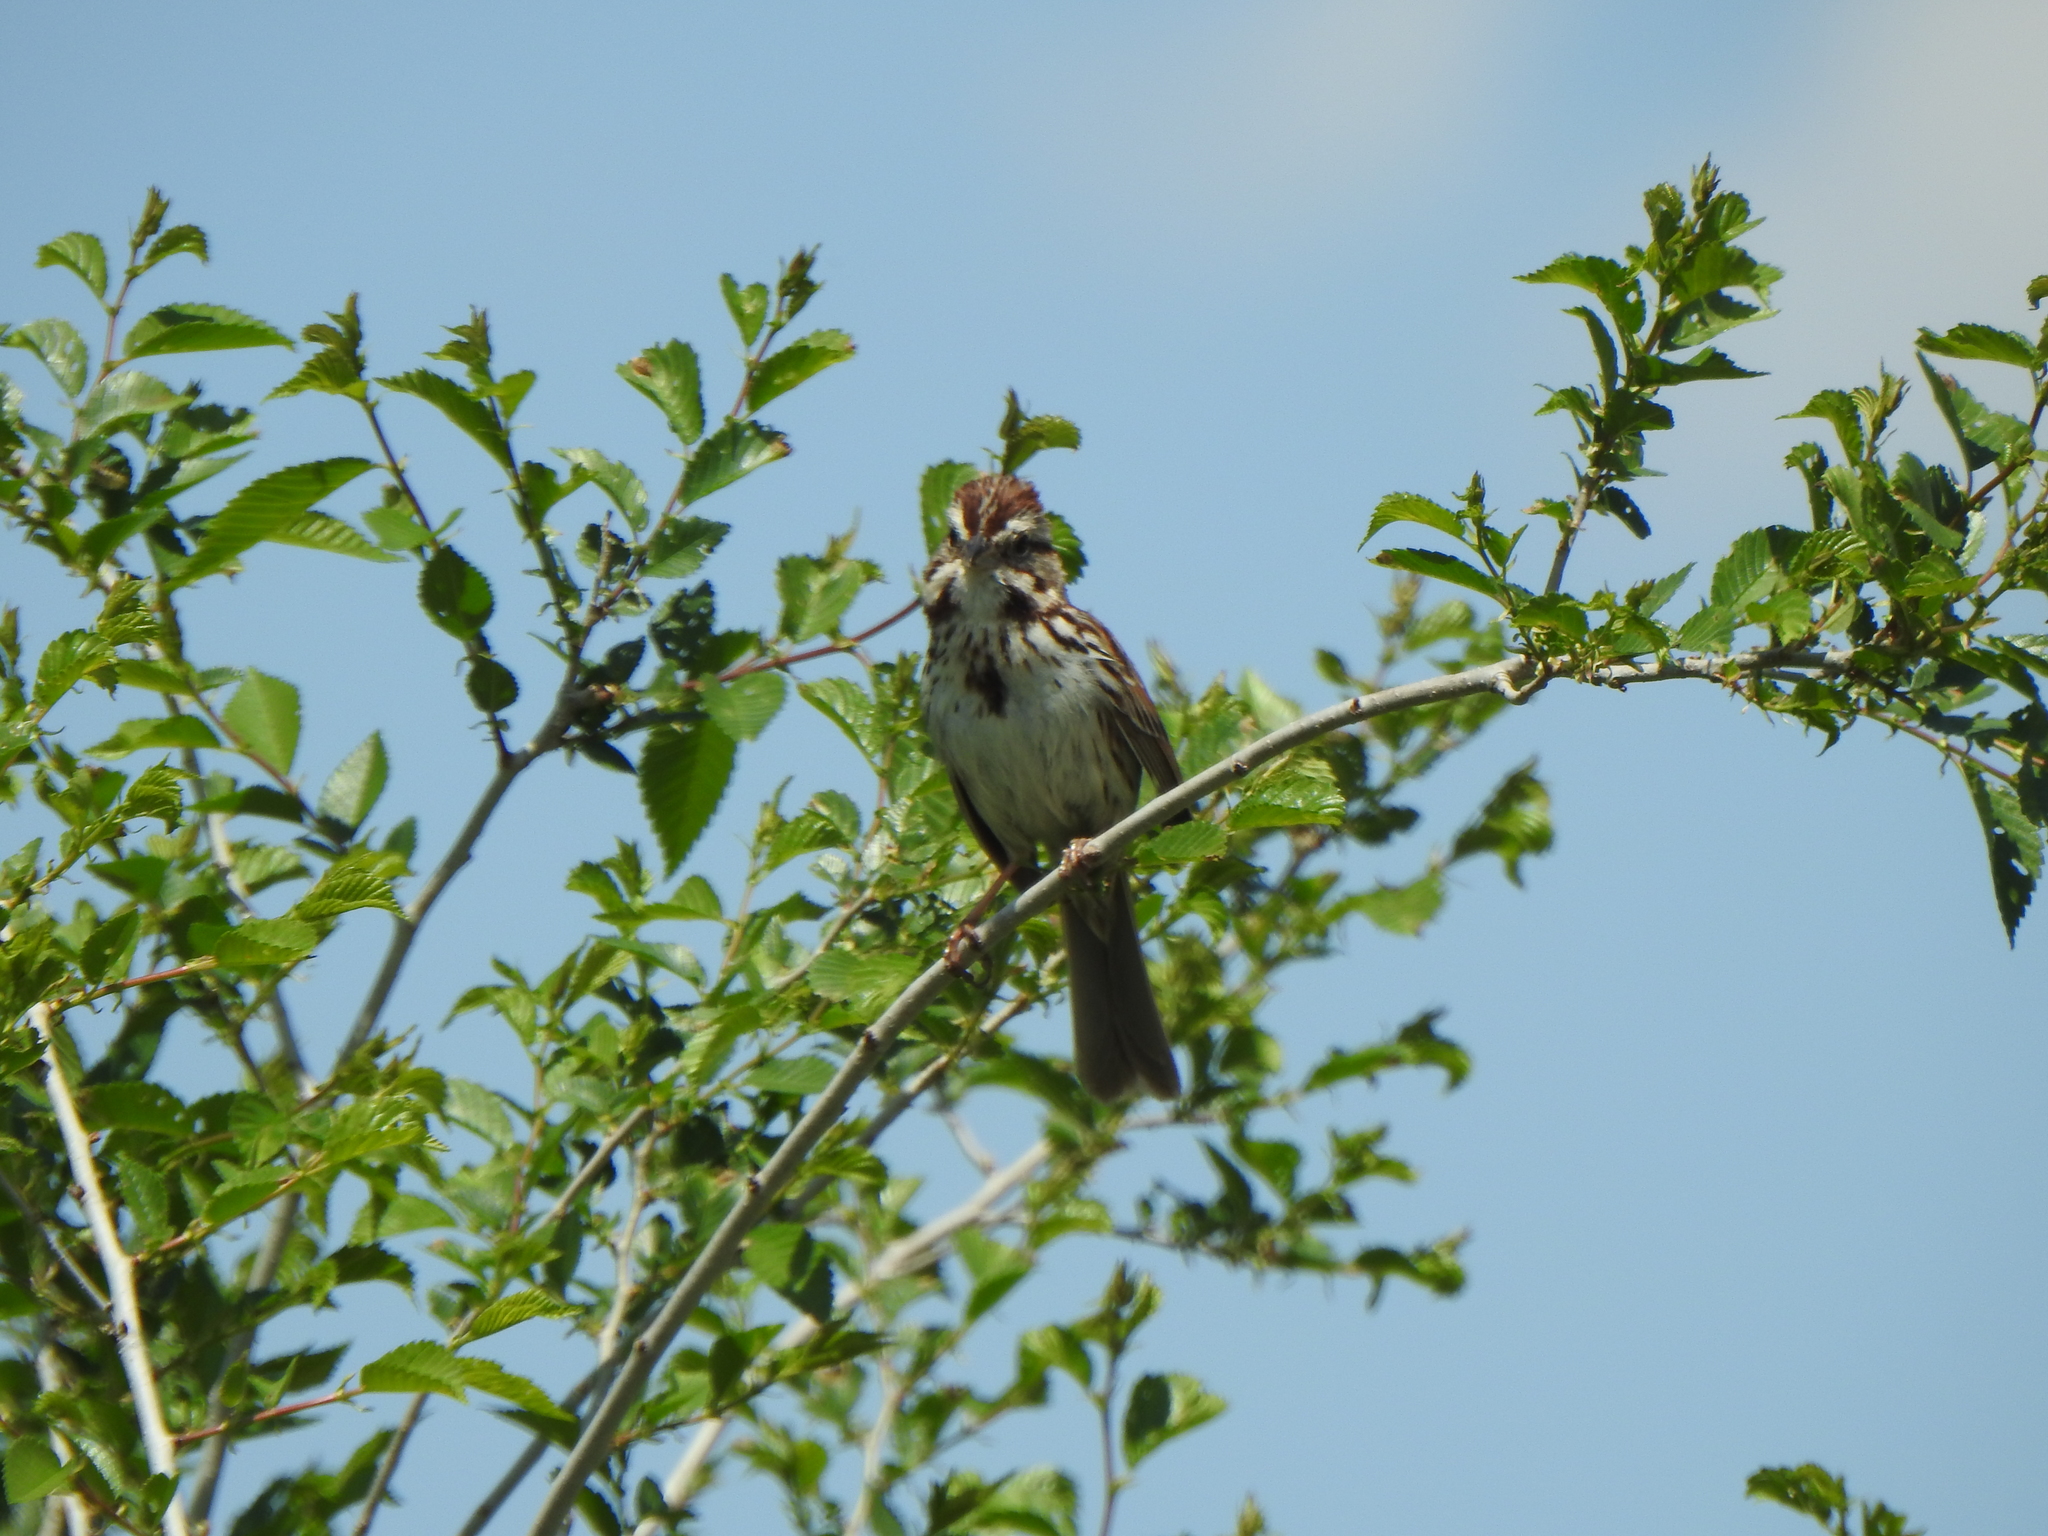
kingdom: Animalia
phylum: Chordata
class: Aves
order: Passeriformes
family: Passerellidae
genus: Melospiza
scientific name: Melospiza melodia
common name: Song sparrow
